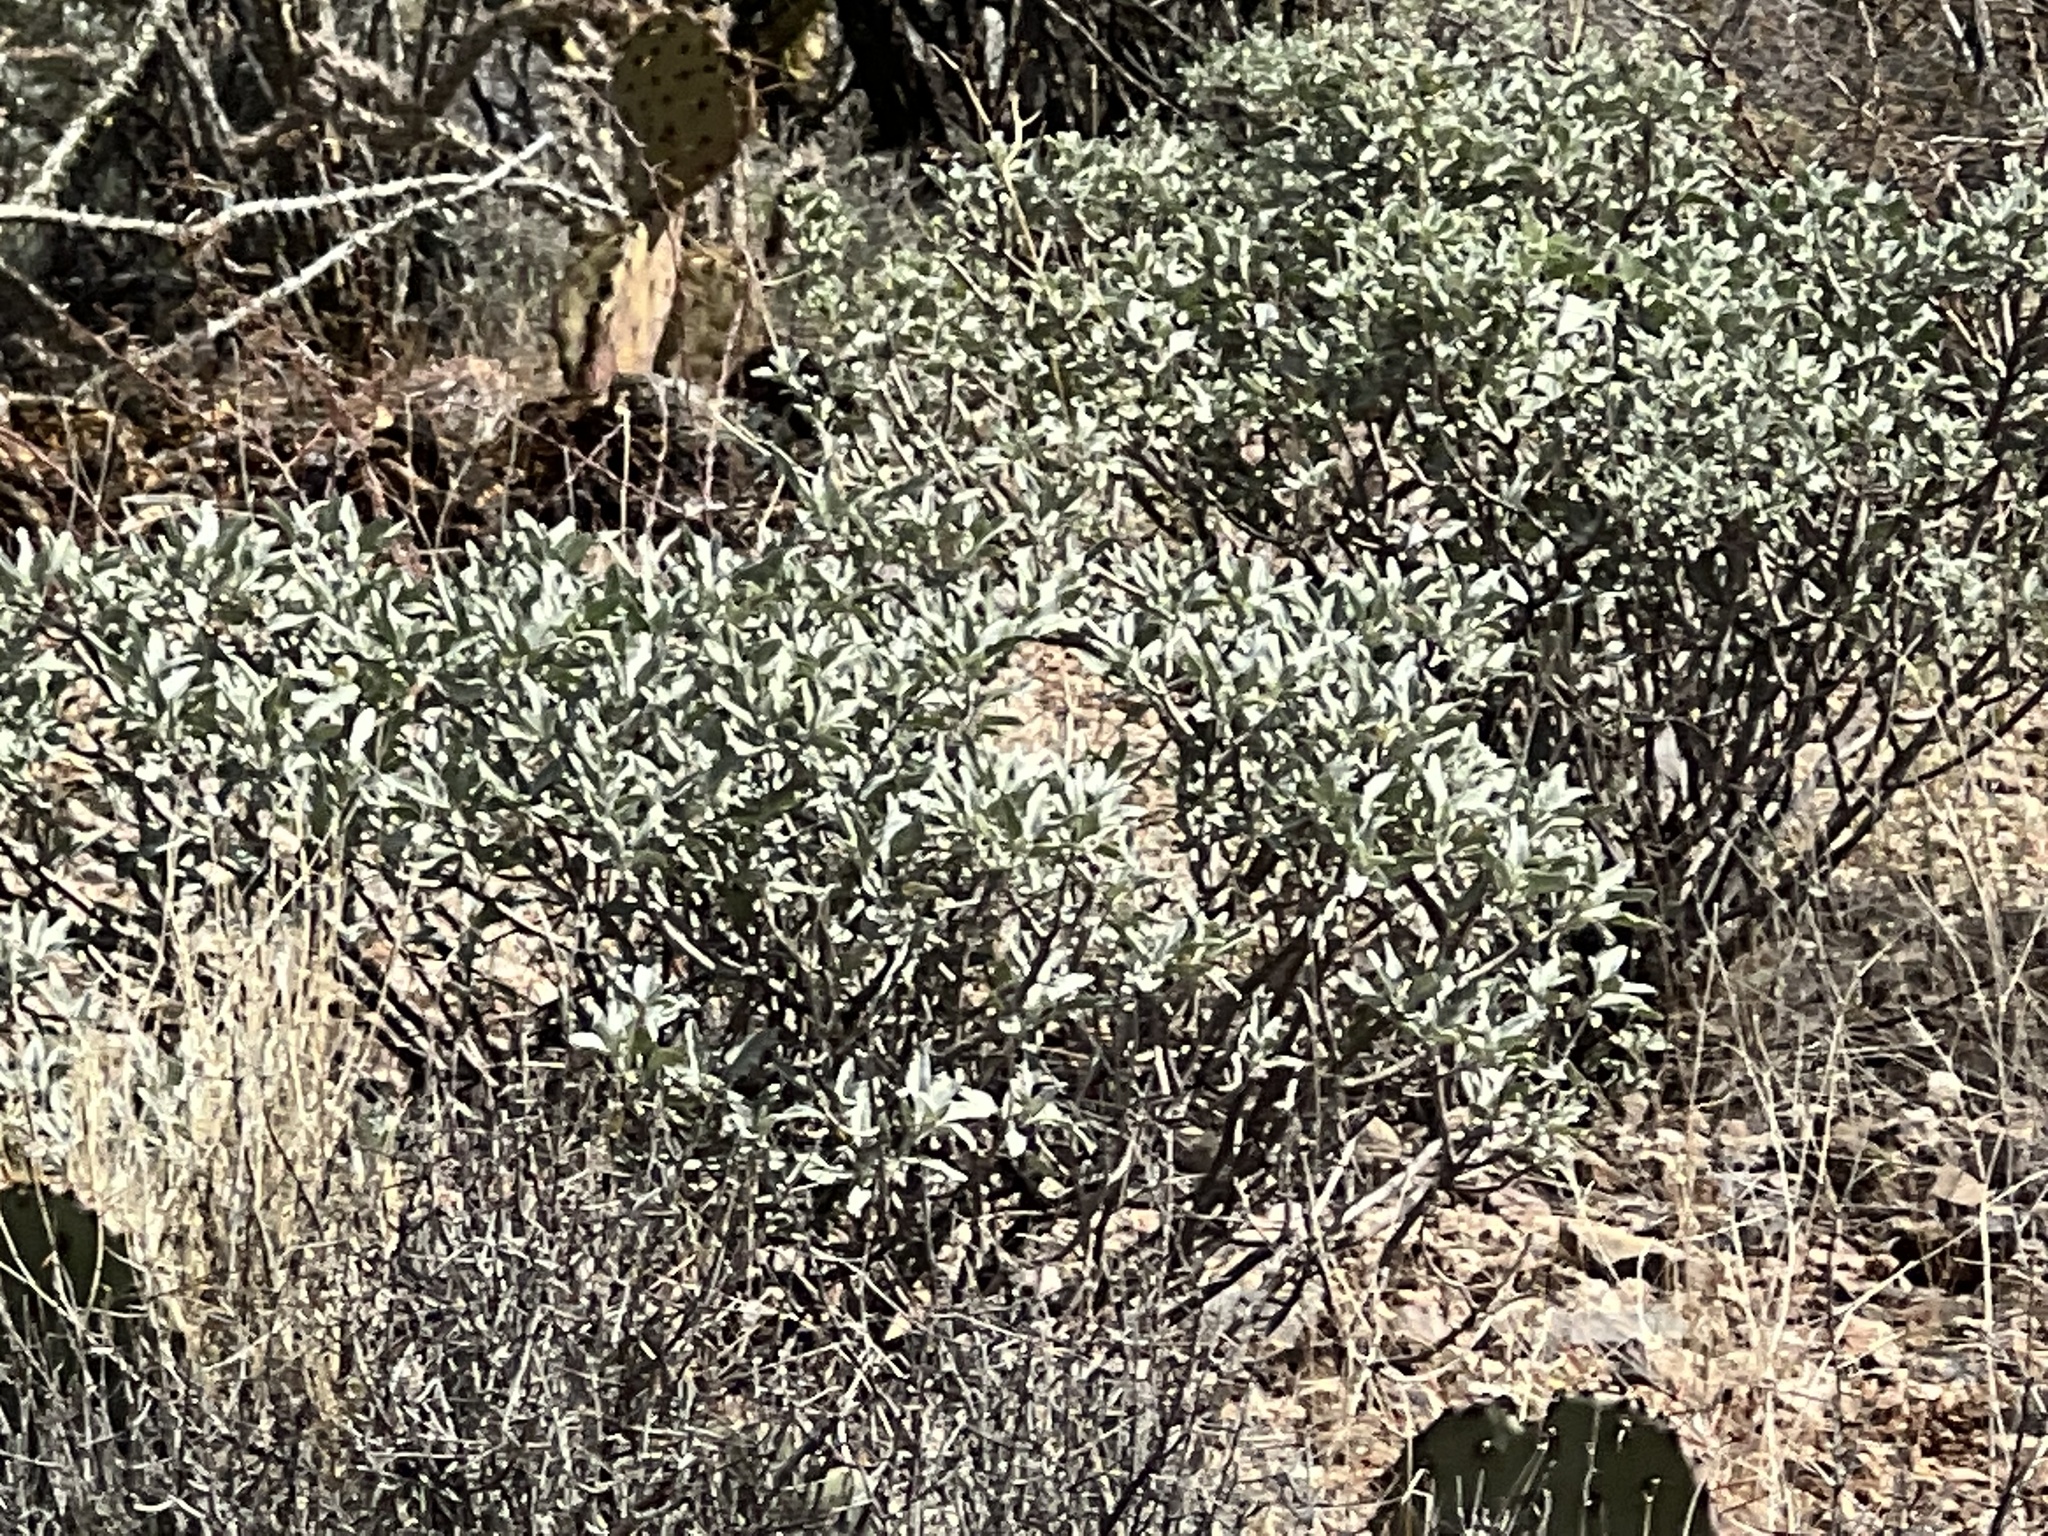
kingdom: Plantae
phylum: Tracheophyta
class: Magnoliopsida
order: Asterales
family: Asteraceae
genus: Encelia
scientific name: Encelia farinosa
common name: Brittlebush
